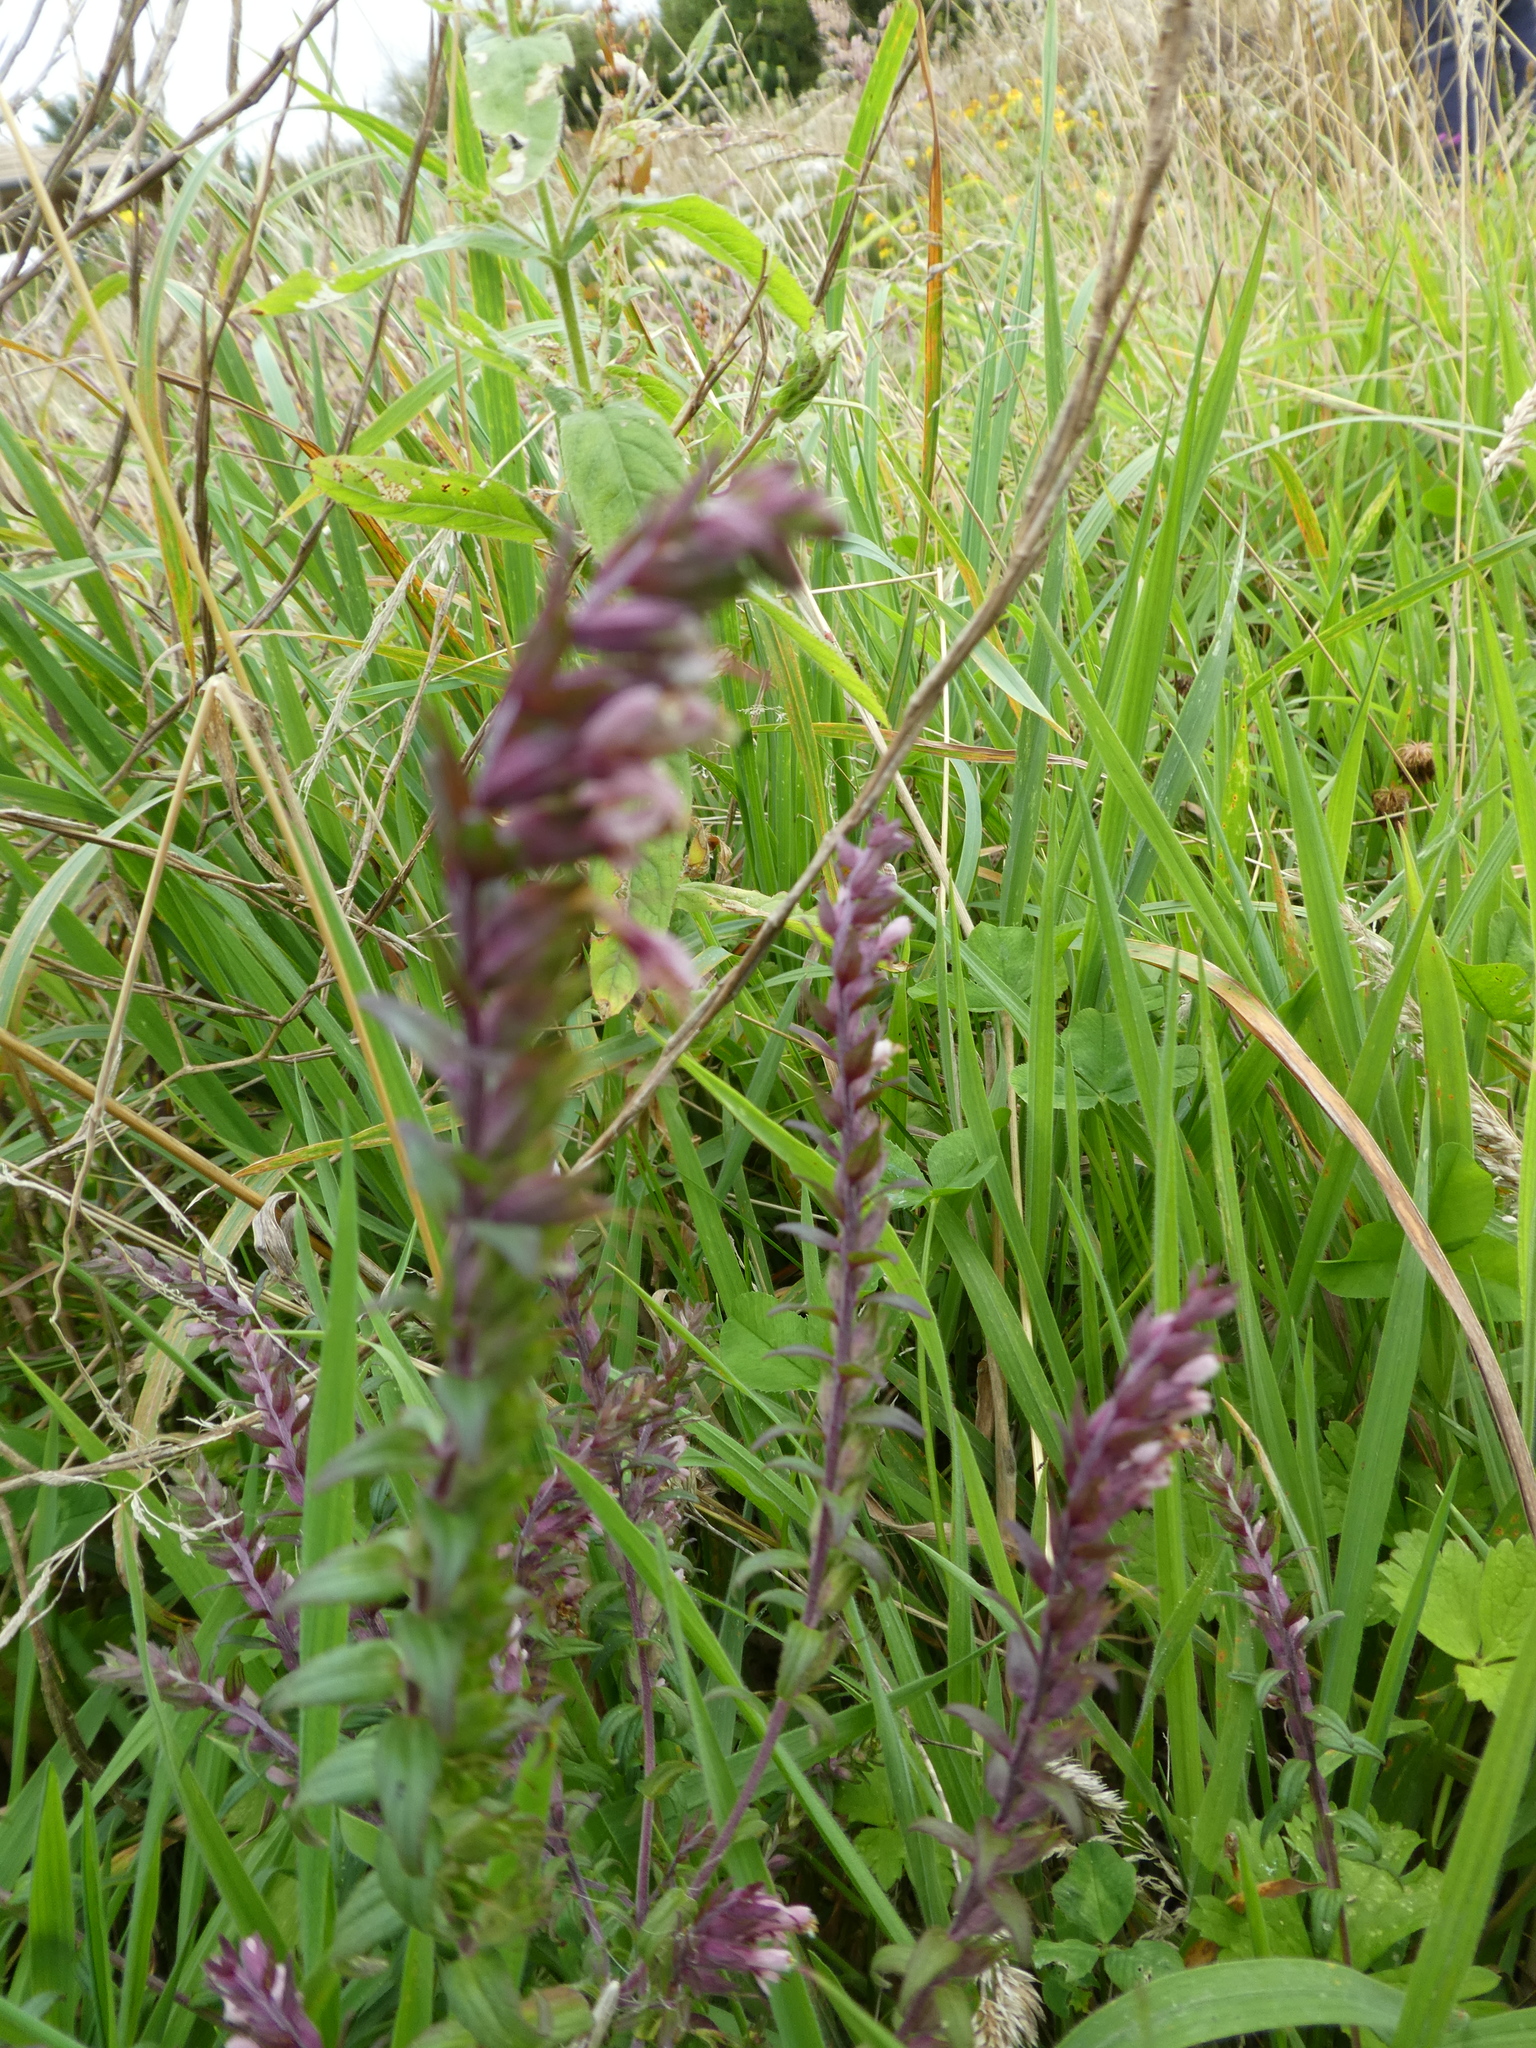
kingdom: Plantae
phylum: Tracheophyta
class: Magnoliopsida
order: Lamiales
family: Orobanchaceae
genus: Odontites
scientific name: Odontites vulgaris
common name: Broomrape
